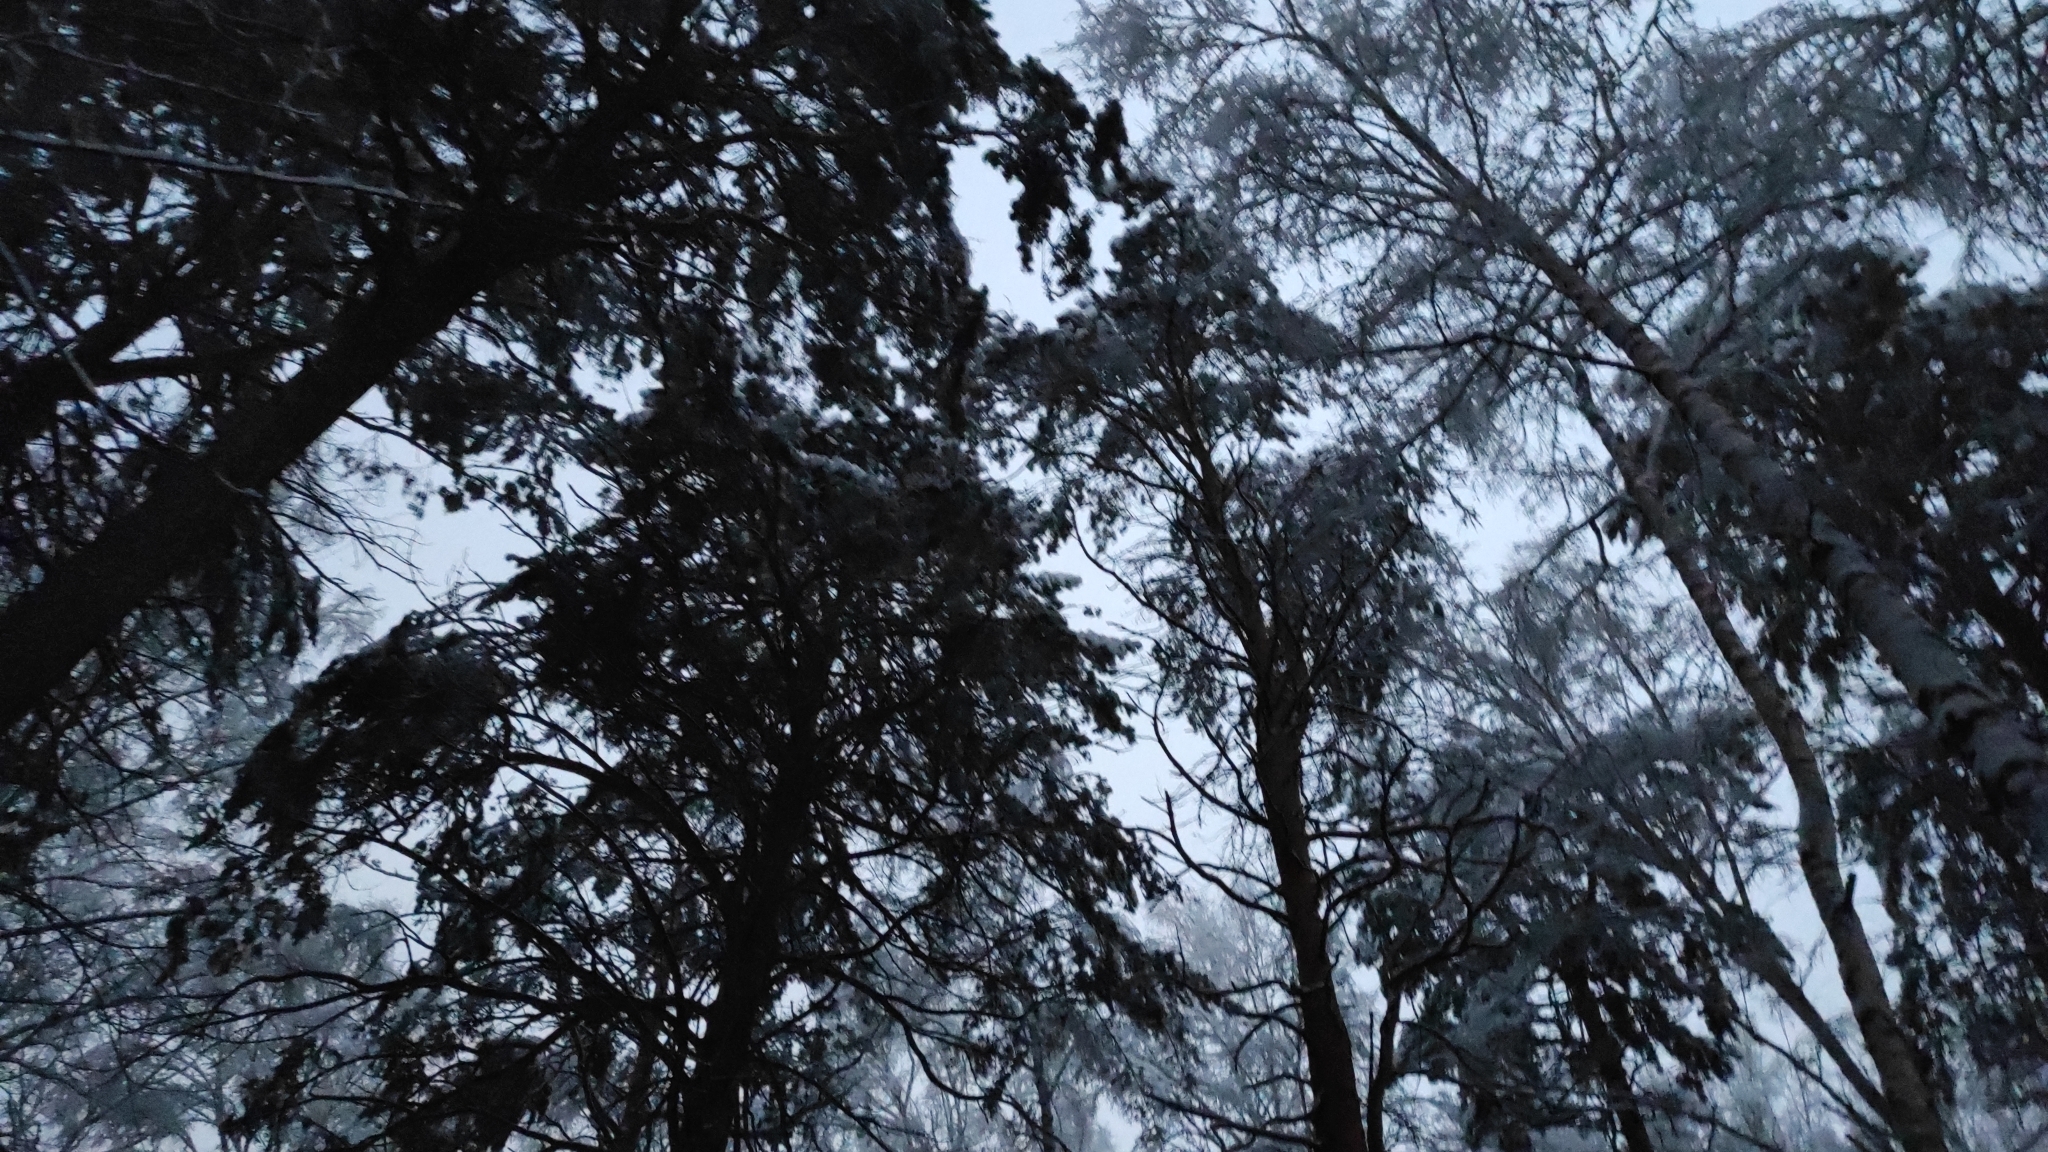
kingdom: Plantae
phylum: Tracheophyta
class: Pinopsida
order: Pinales
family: Pinaceae
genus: Pinus
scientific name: Pinus sylvestris
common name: Scots pine
